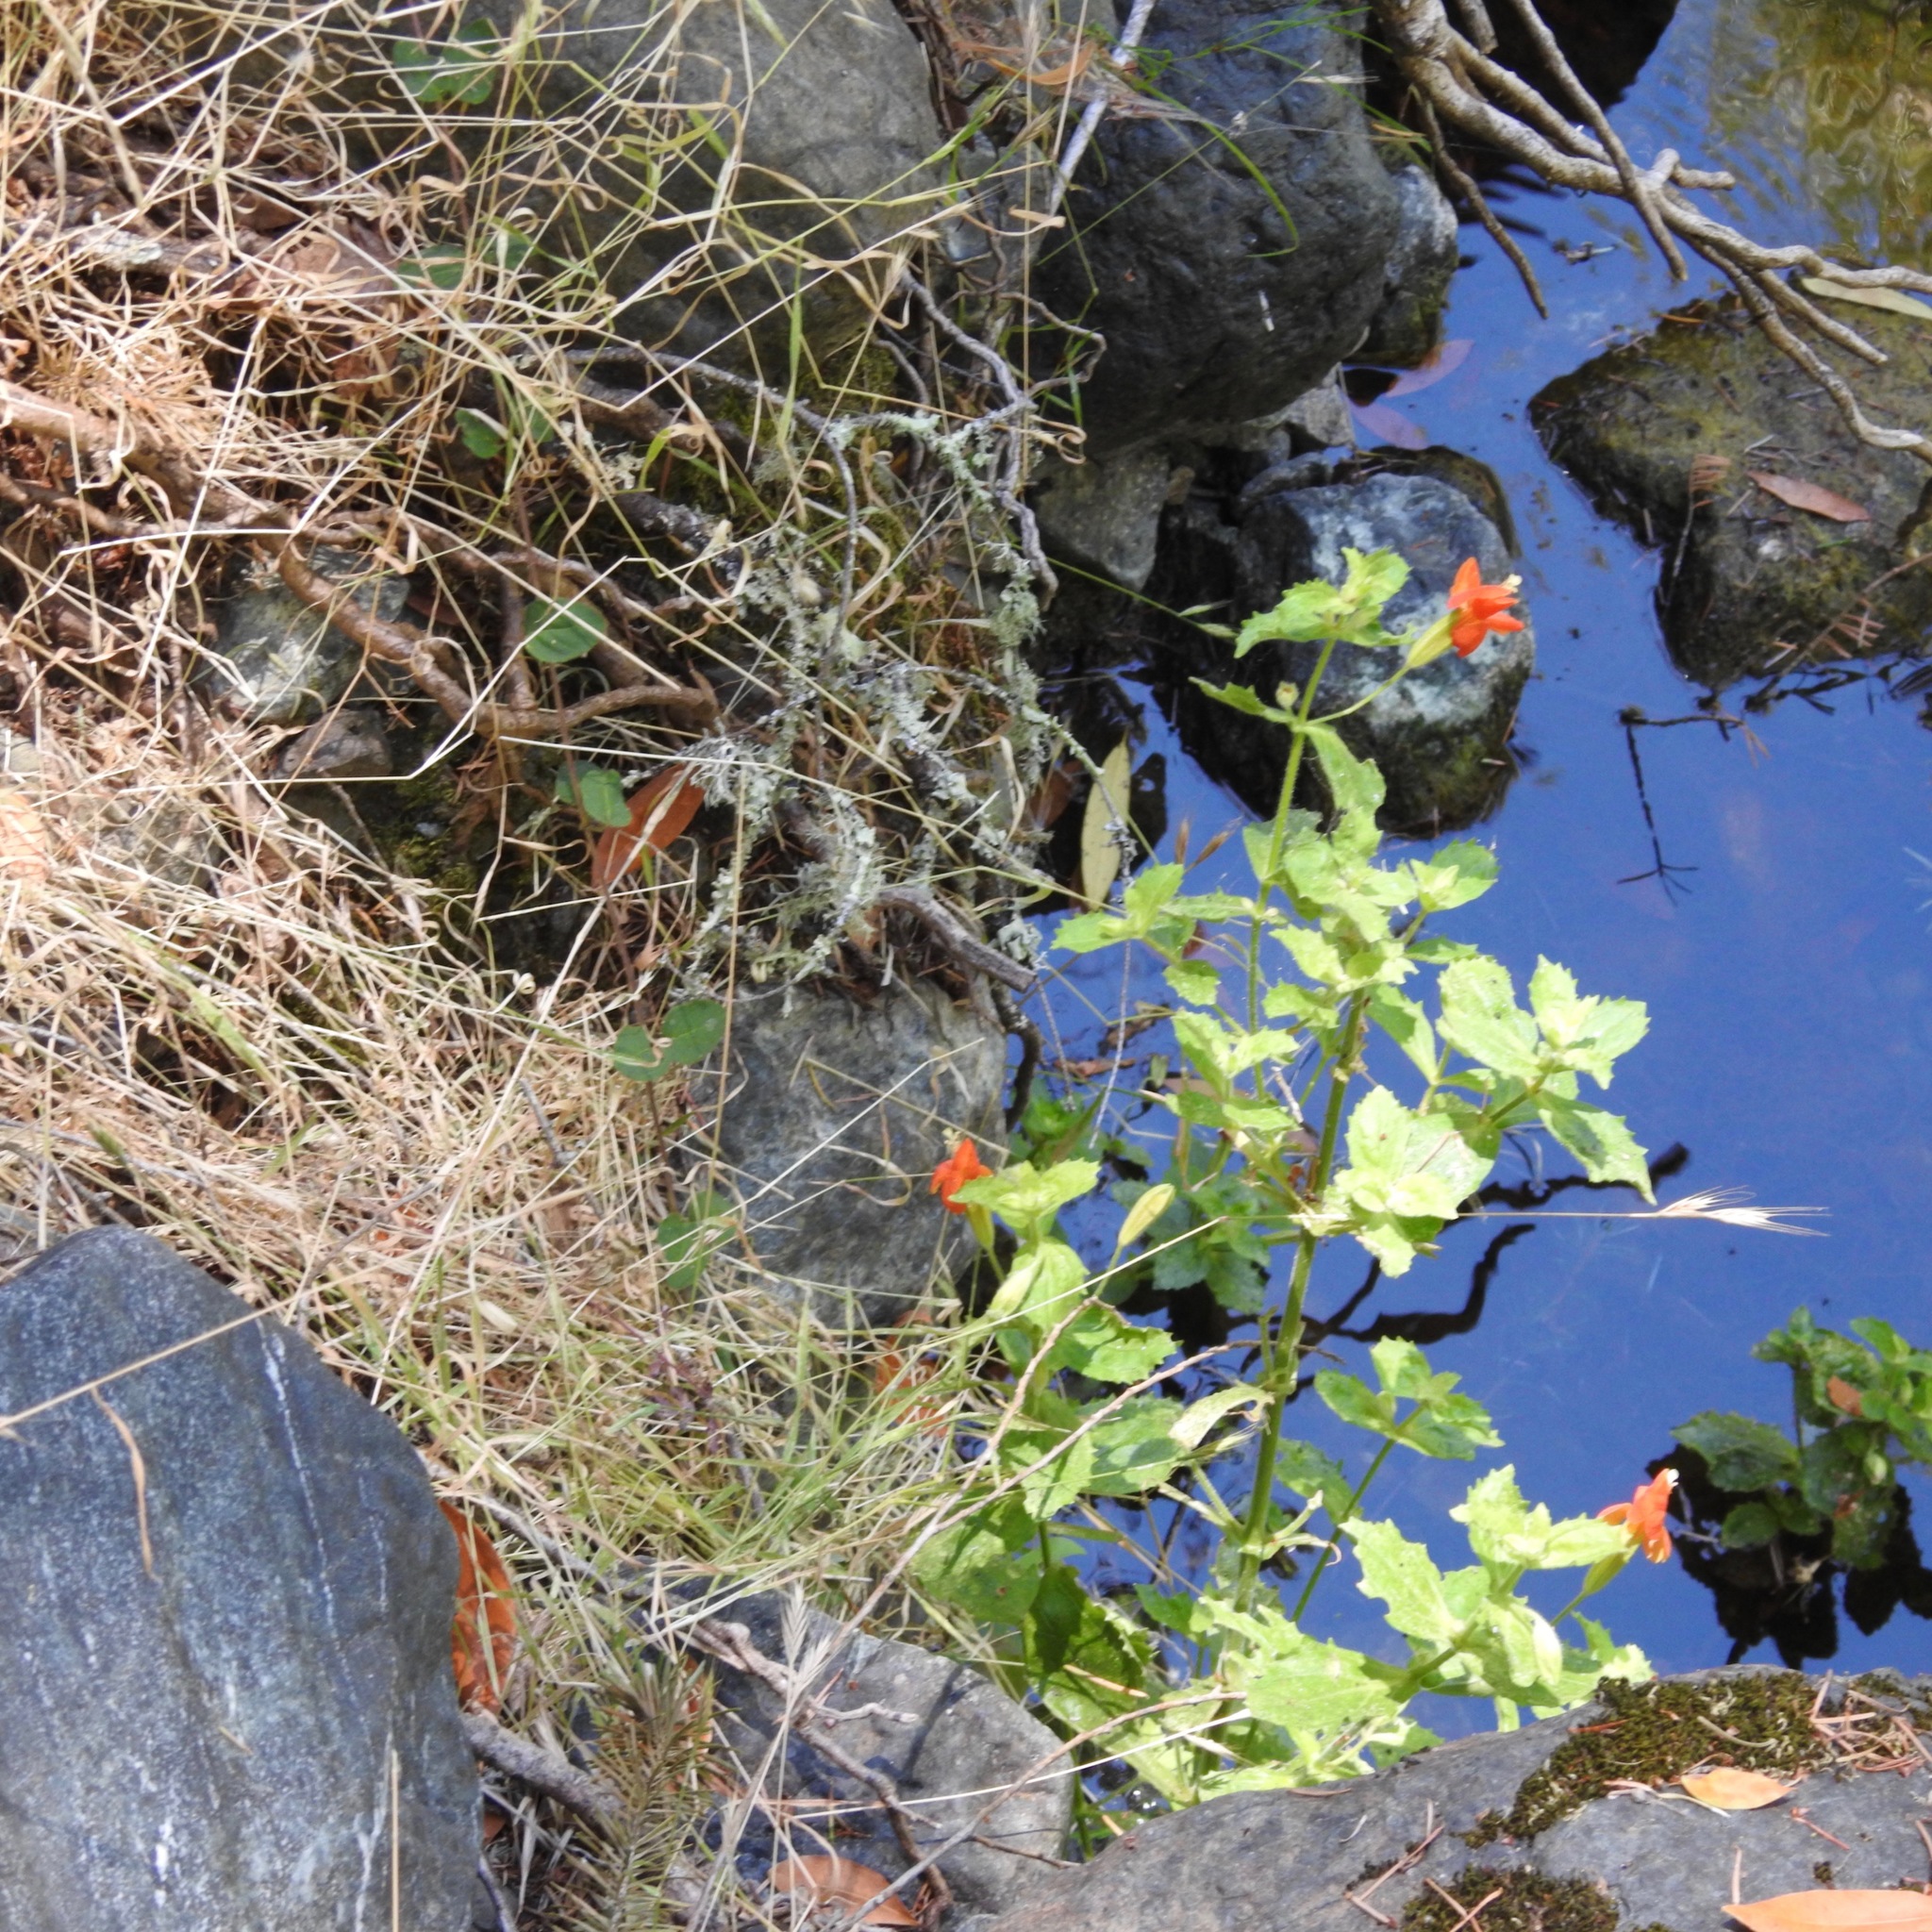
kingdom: Plantae
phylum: Tracheophyta
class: Magnoliopsida
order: Lamiales
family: Phrymaceae
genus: Erythranthe
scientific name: Erythranthe cardinalis
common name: Scarlet monkey-flower
